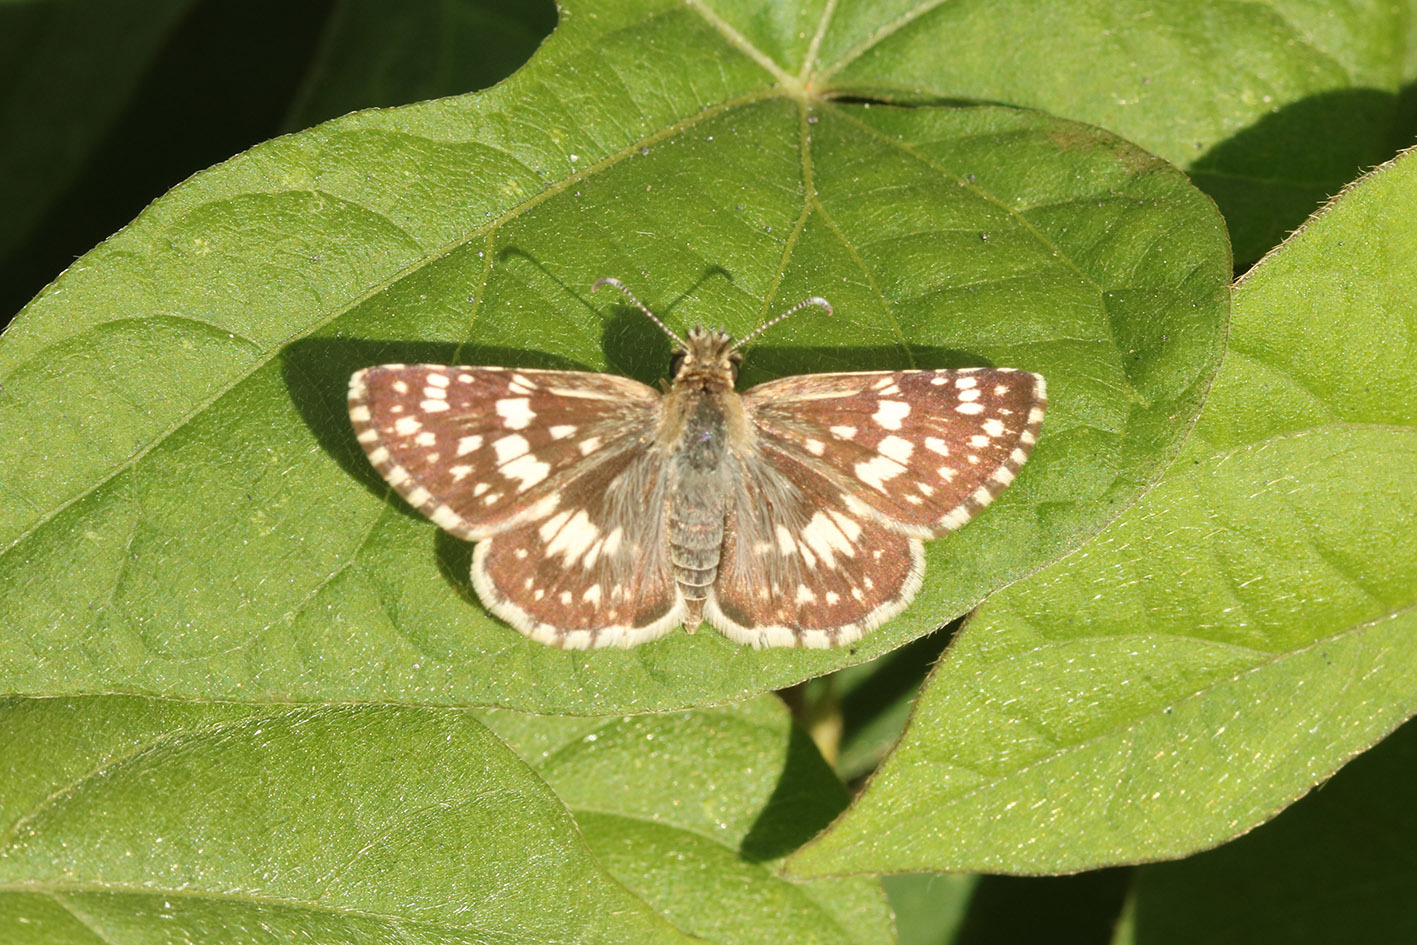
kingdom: Animalia
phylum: Arthropoda
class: Insecta
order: Lepidoptera
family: Hesperiidae
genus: Burnsius
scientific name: Burnsius orcynoides
